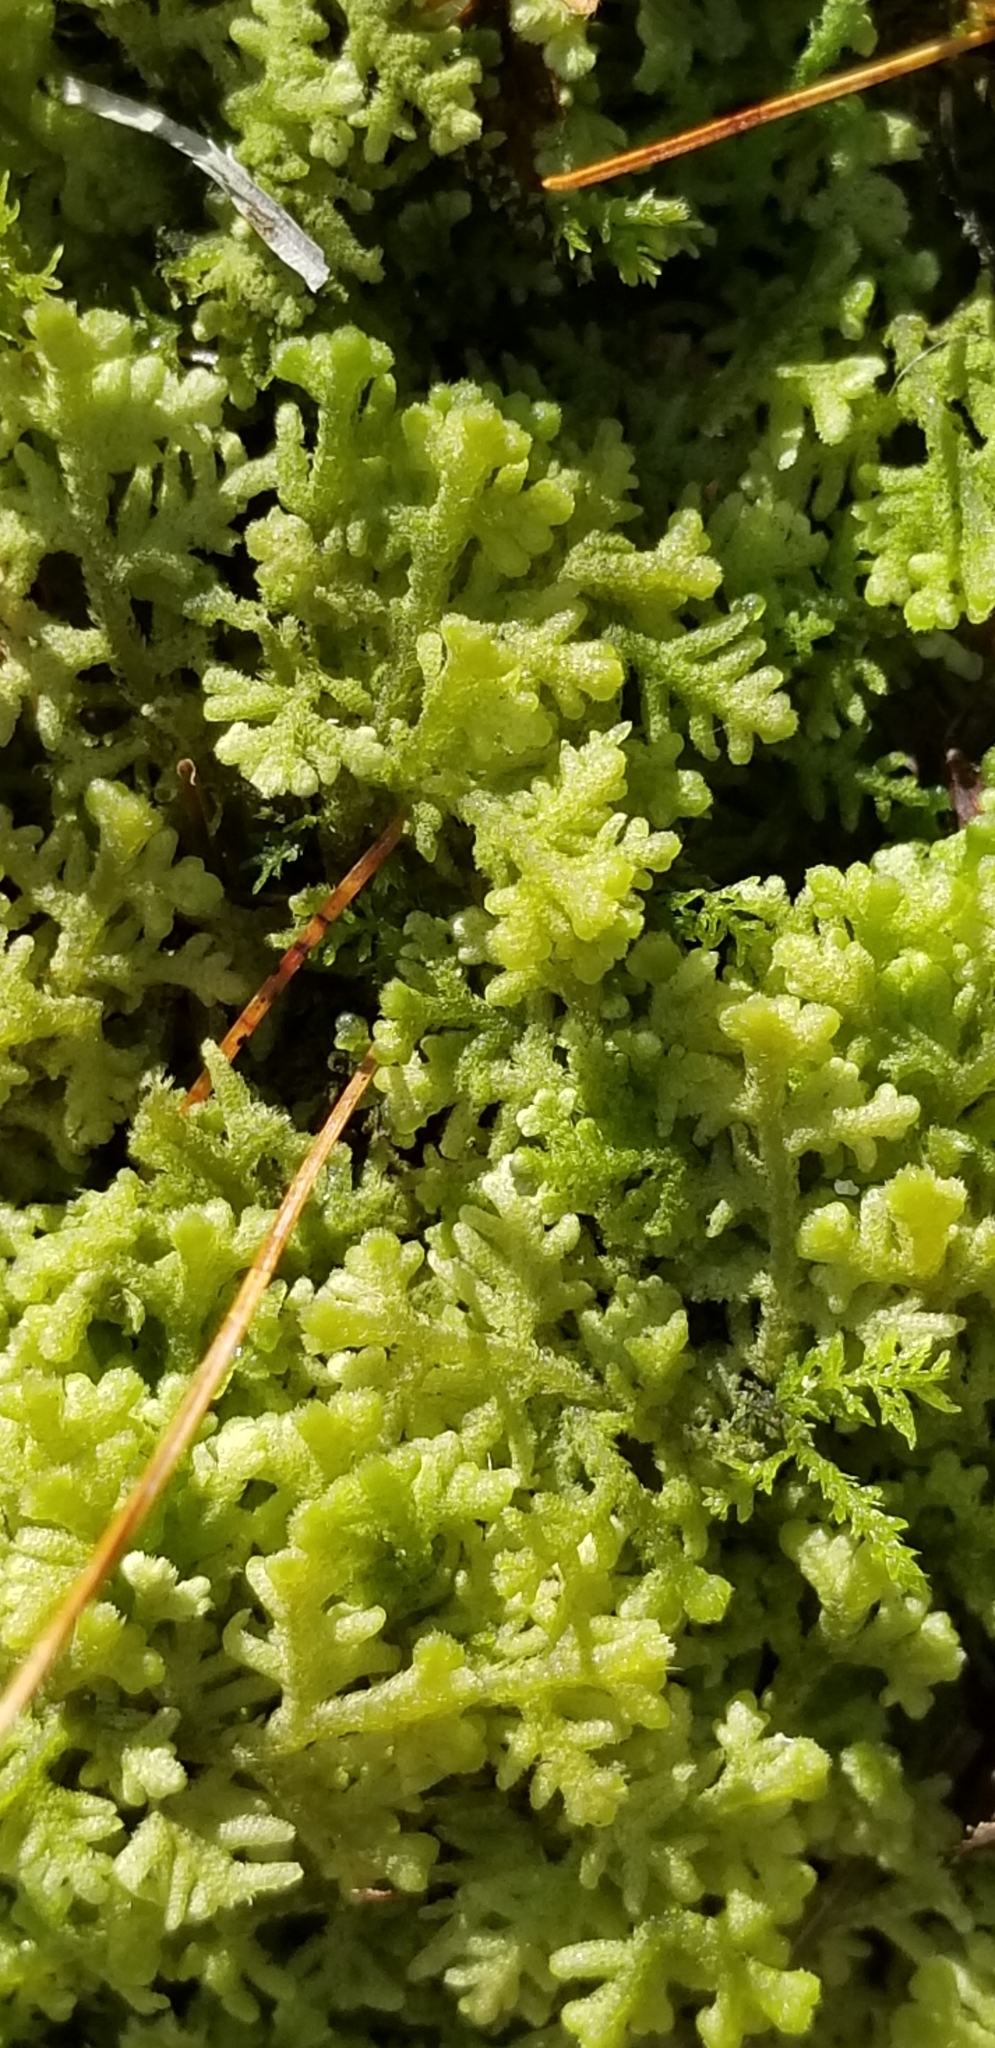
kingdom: Plantae
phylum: Marchantiophyta
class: Jungermanniopsida
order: Jungermanniales
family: Trichocoleaceae
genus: Trichocolea
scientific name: Trichocolea tomentella
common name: Woolly liverwort
